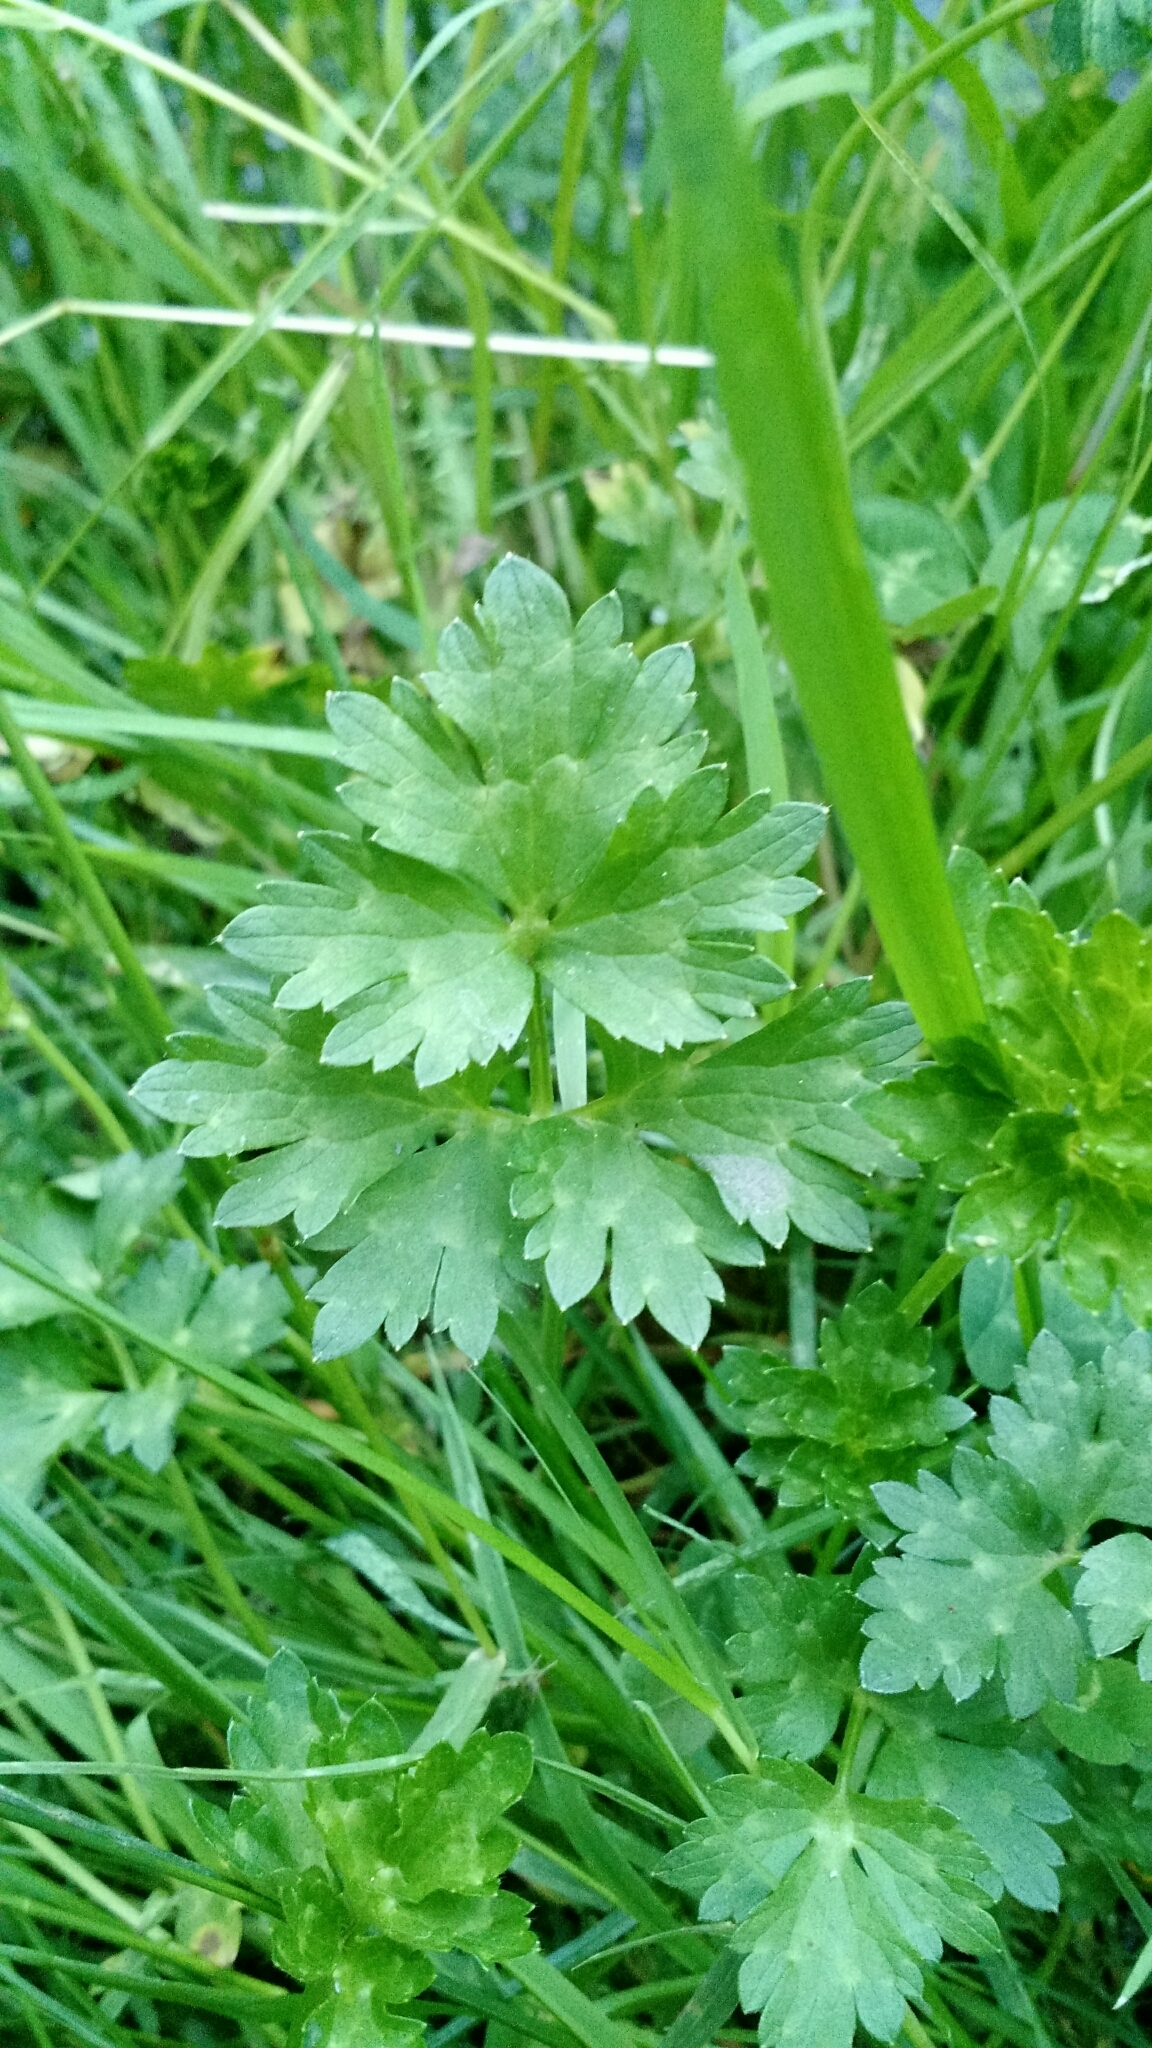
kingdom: Plantae
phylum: Tracheophyta
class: Magnoliopsida
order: Ranunculales
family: Ranunculaceae
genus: Ranunculus
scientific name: Ranunculus repens
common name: Creeping buttercup
